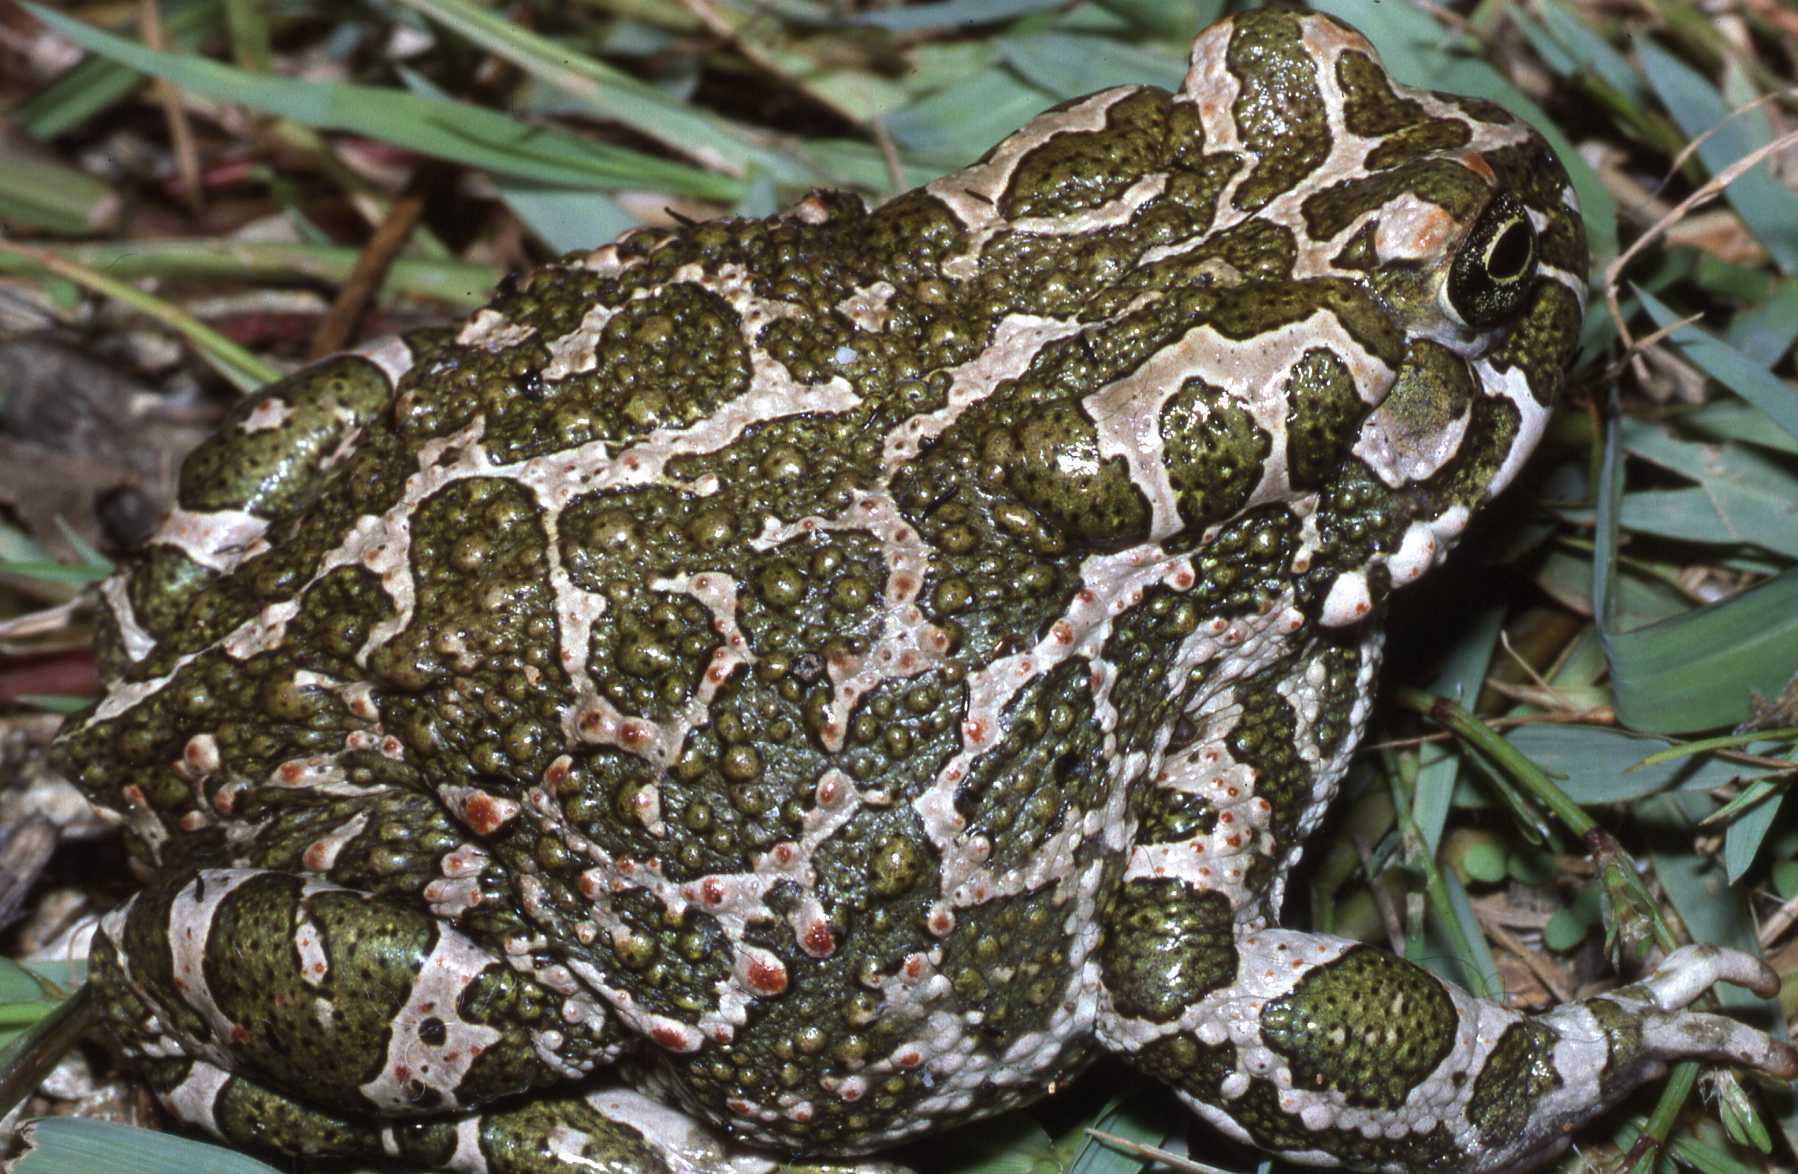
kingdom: Animalia
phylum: Chordata
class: Amphibia
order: Anura
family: Bufonidae
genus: Bufotes
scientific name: Bufotes viridis
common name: European green toad
